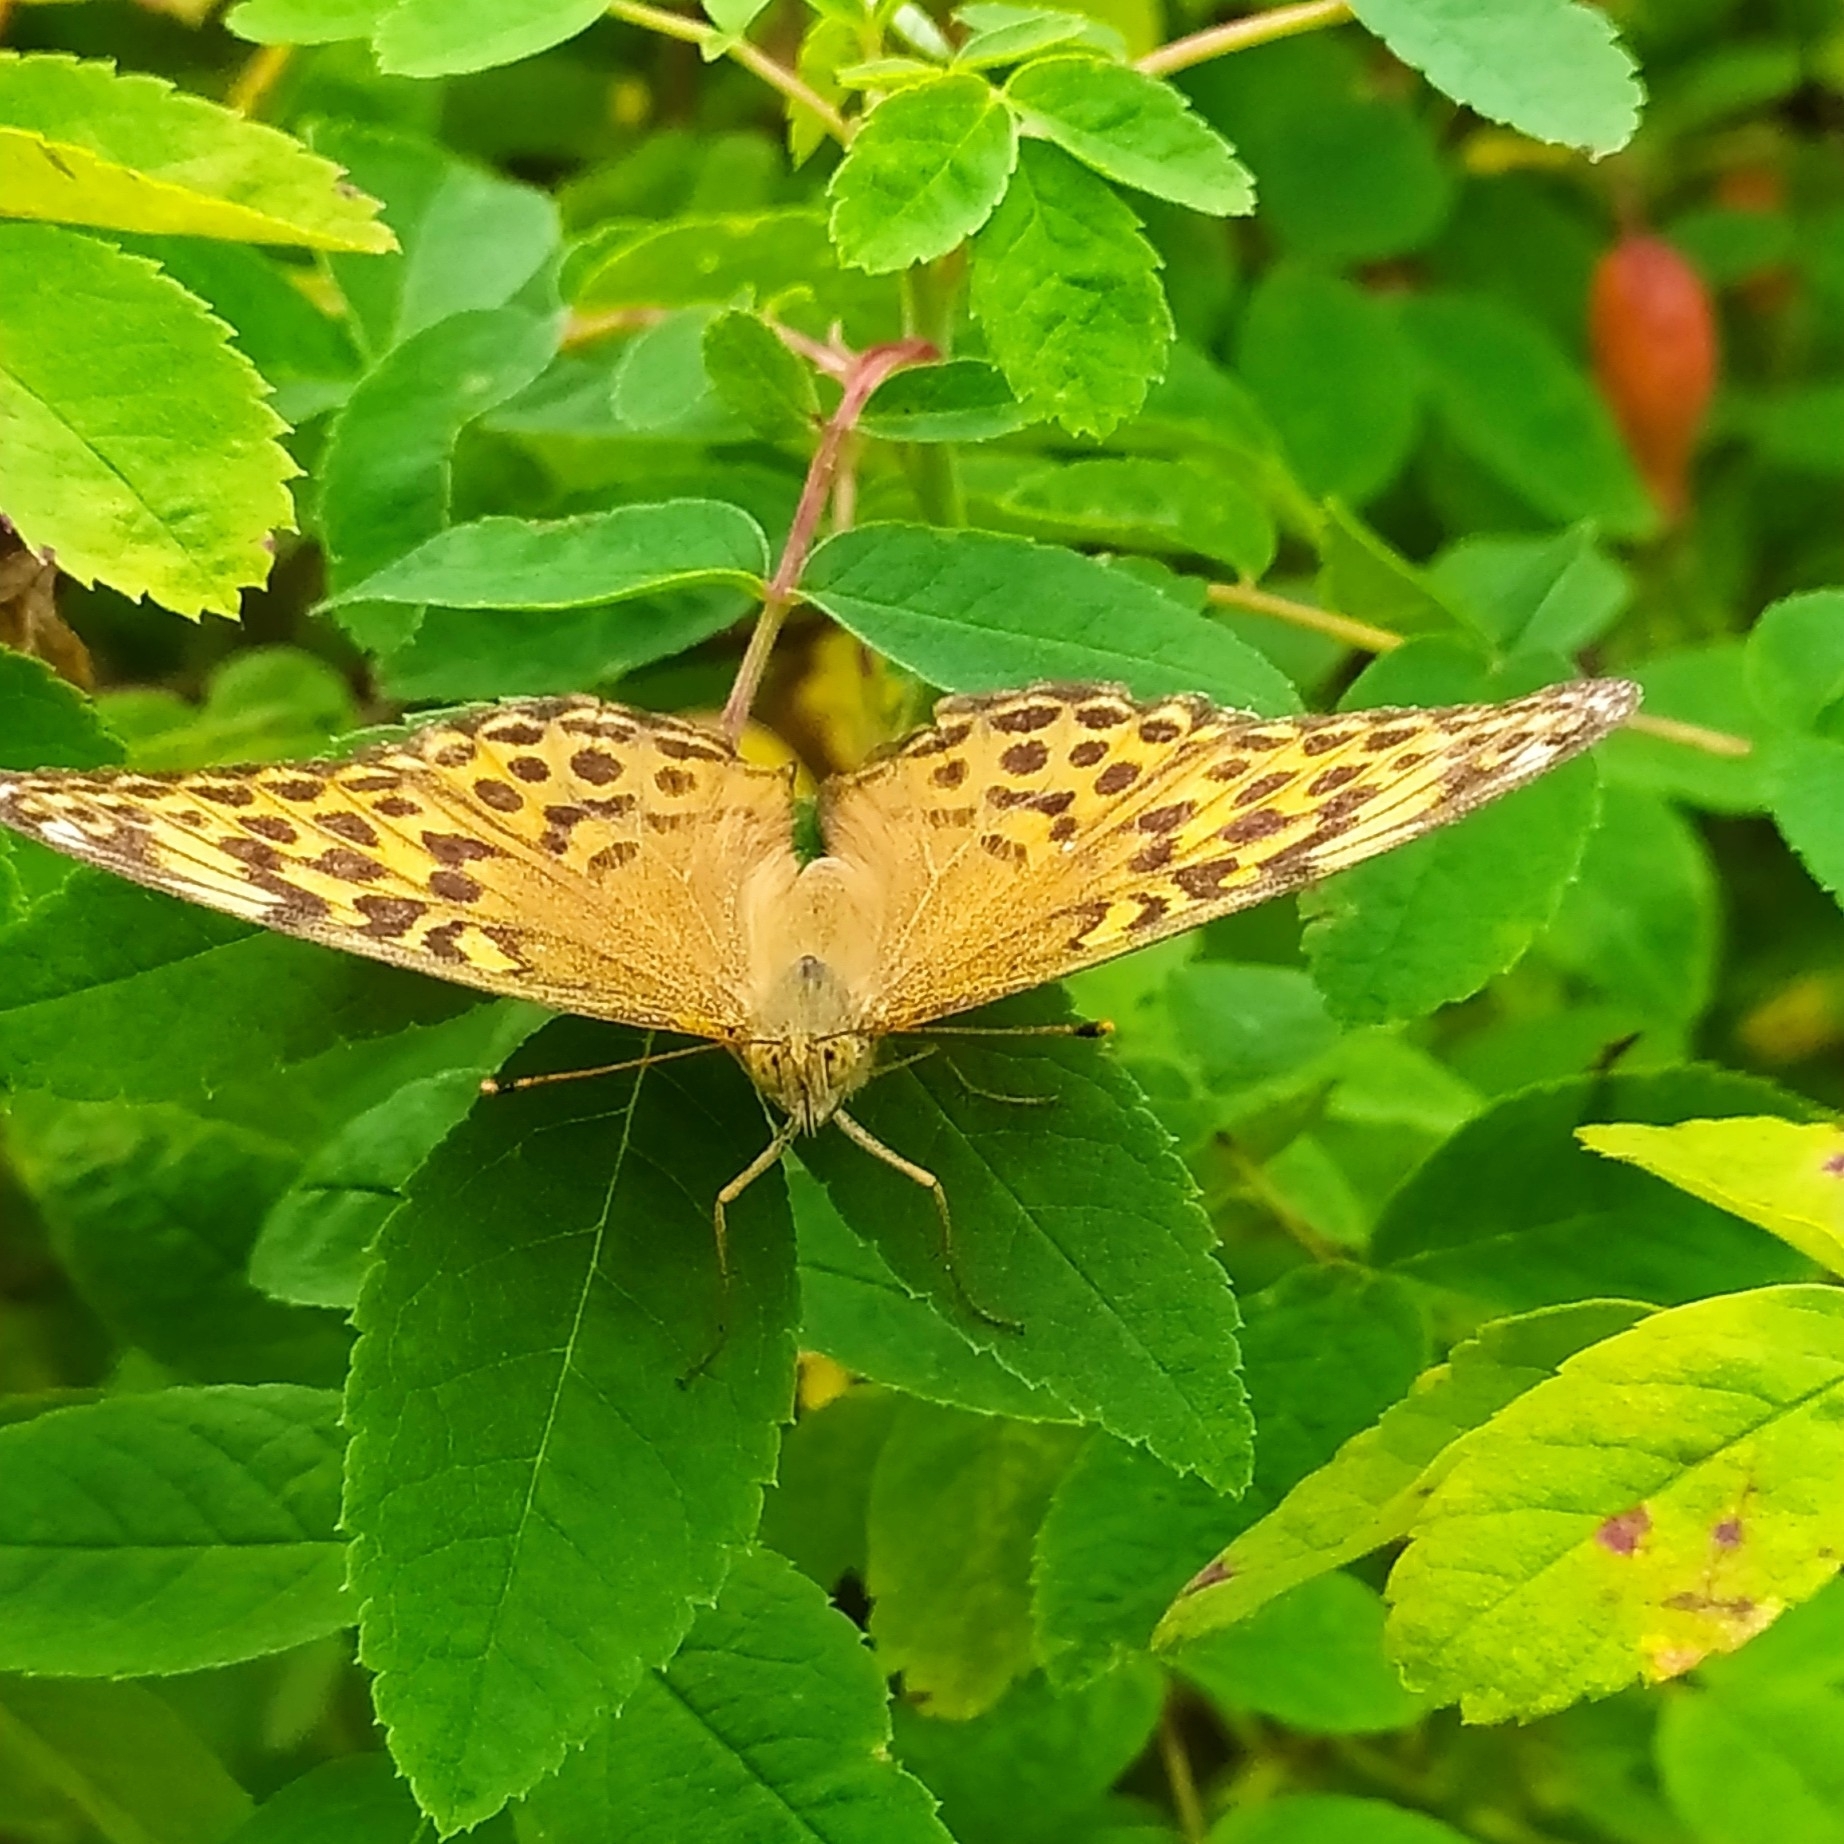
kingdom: Animalia
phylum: Arthropoda
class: Insecta
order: Lepidoptera
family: Nymphalidae
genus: Argynnis
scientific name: Argynnis paphia
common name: Silver-washed fritillary
